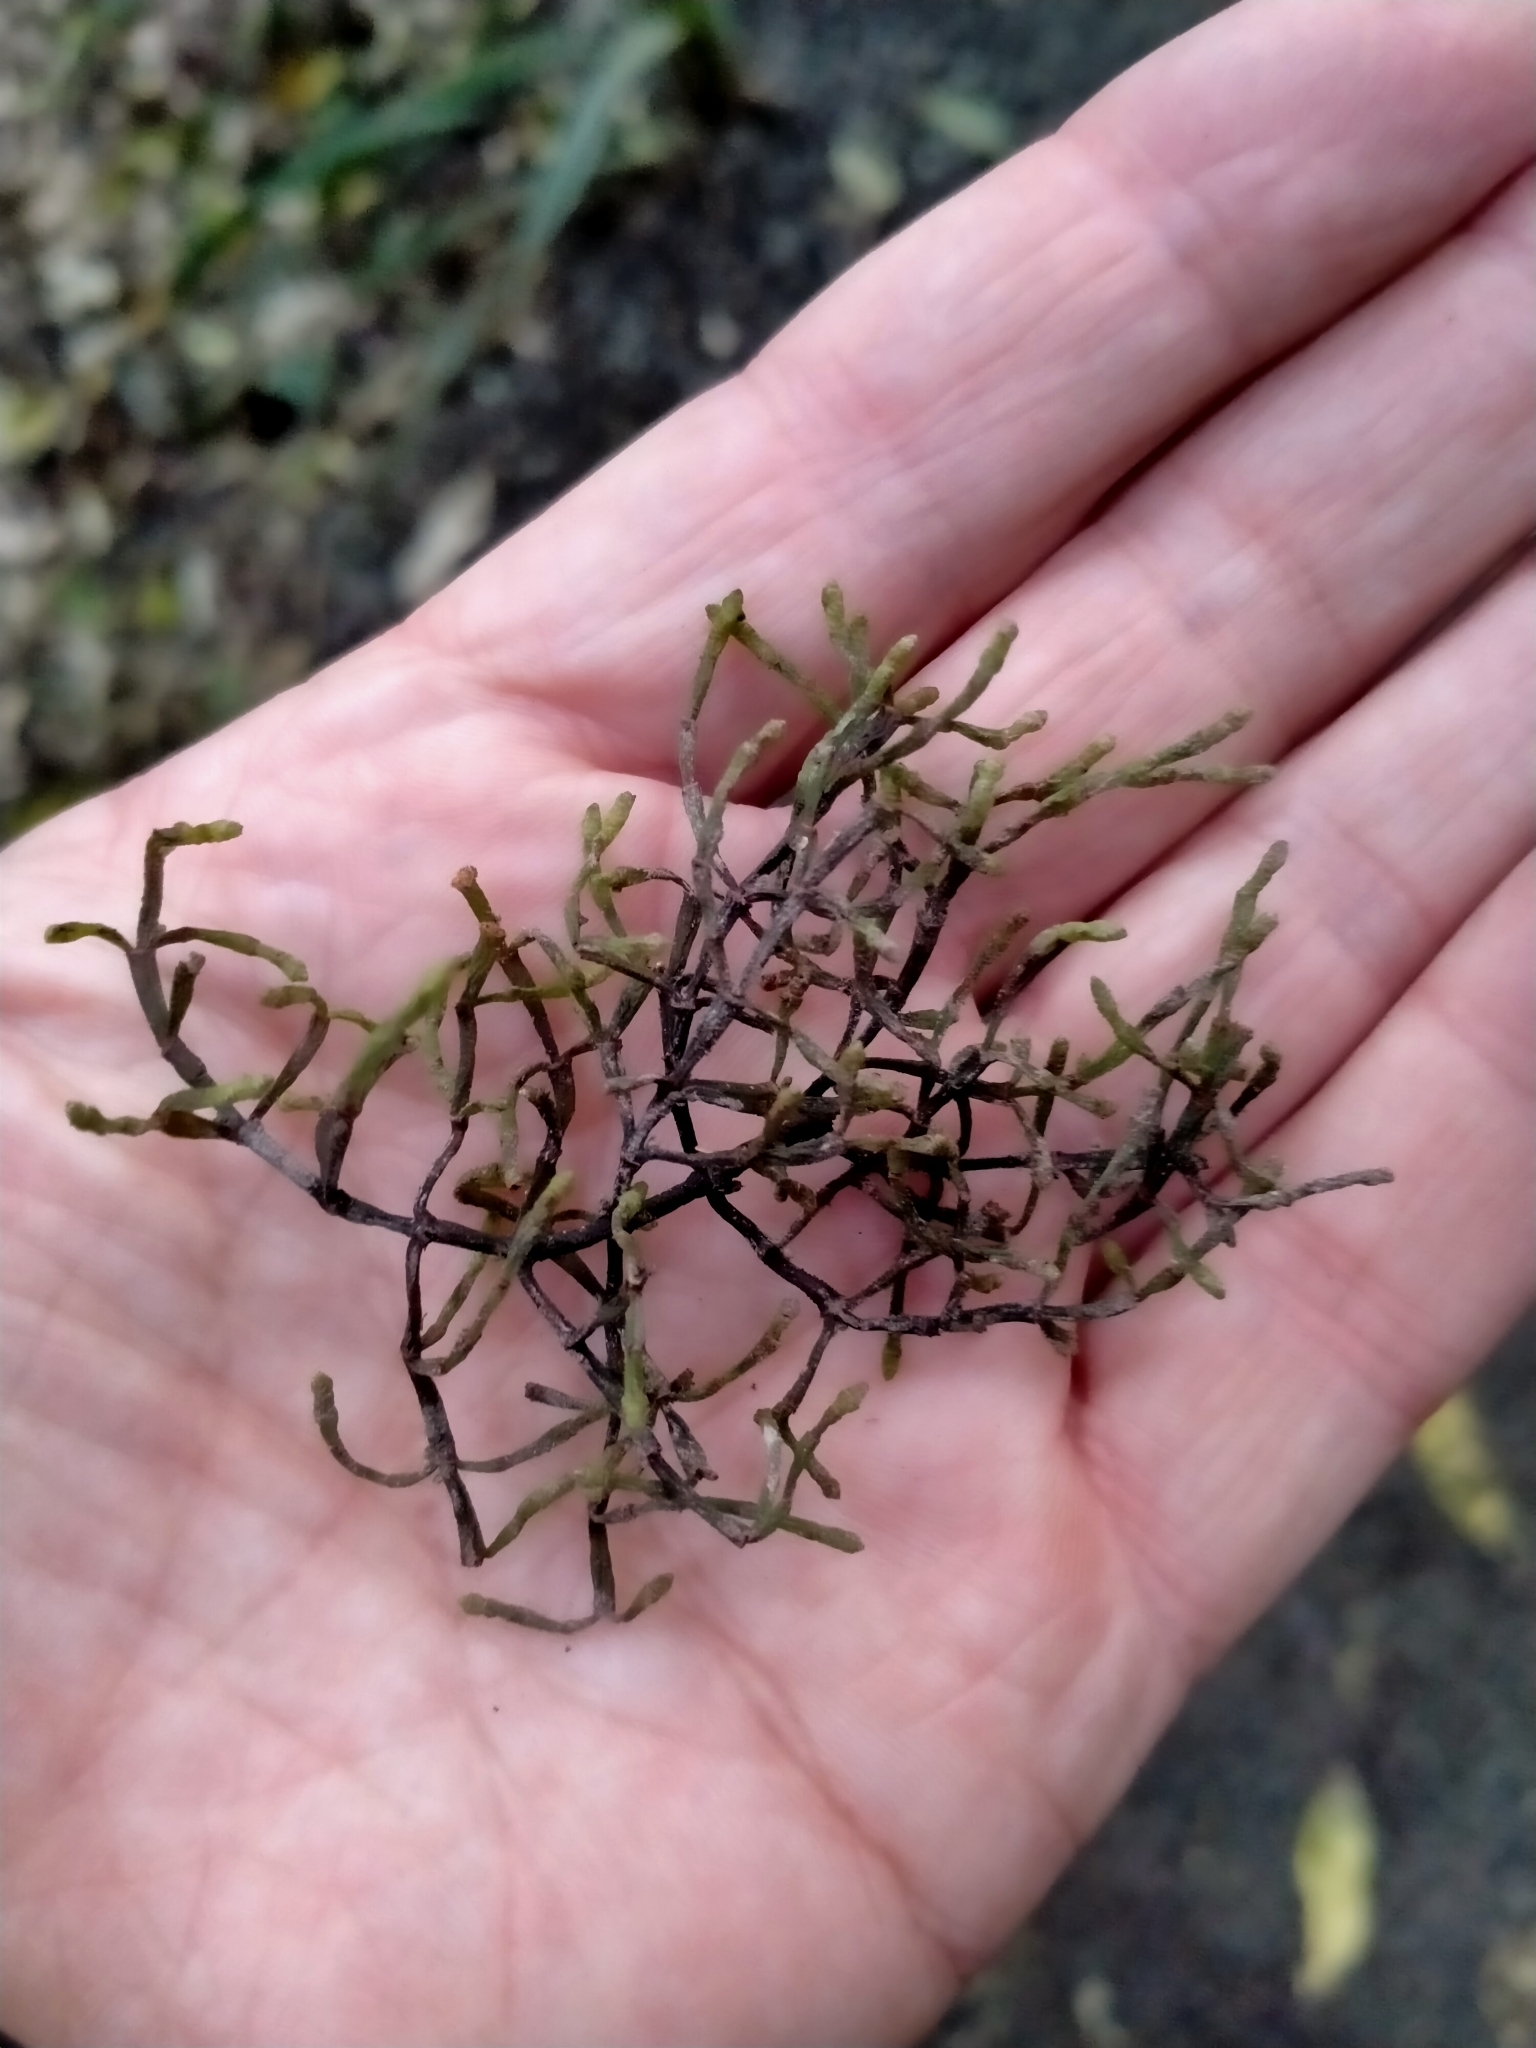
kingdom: Plantae
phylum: Tracheophyta
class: Magnoliopsida
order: Santalales
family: Viscaceae
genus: Korthalsella
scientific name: Korthalsella salicornioides
